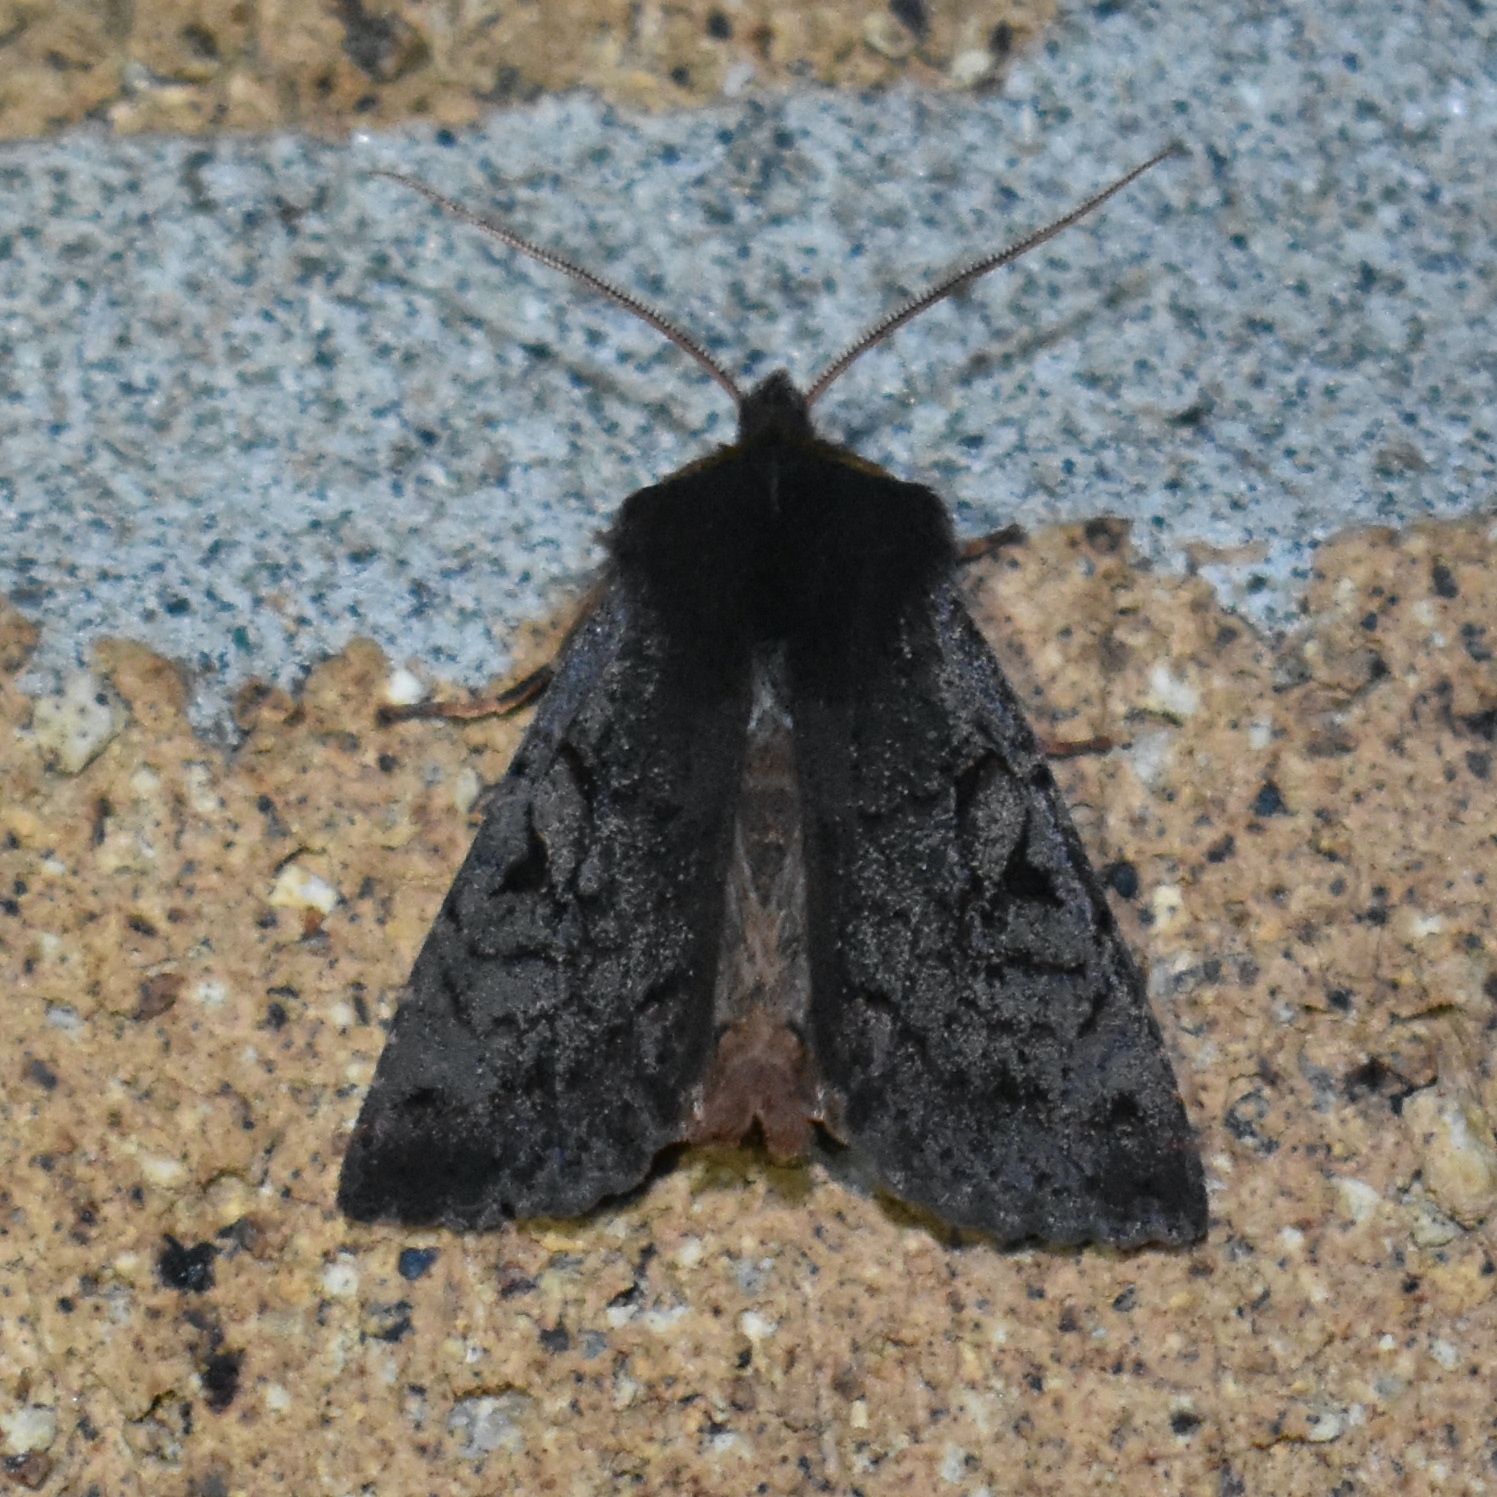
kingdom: Animalia
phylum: Arthropoda
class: Insecta
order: Lepidoptera
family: Noctuidae
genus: Orthosia
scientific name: Orthosia praeses
